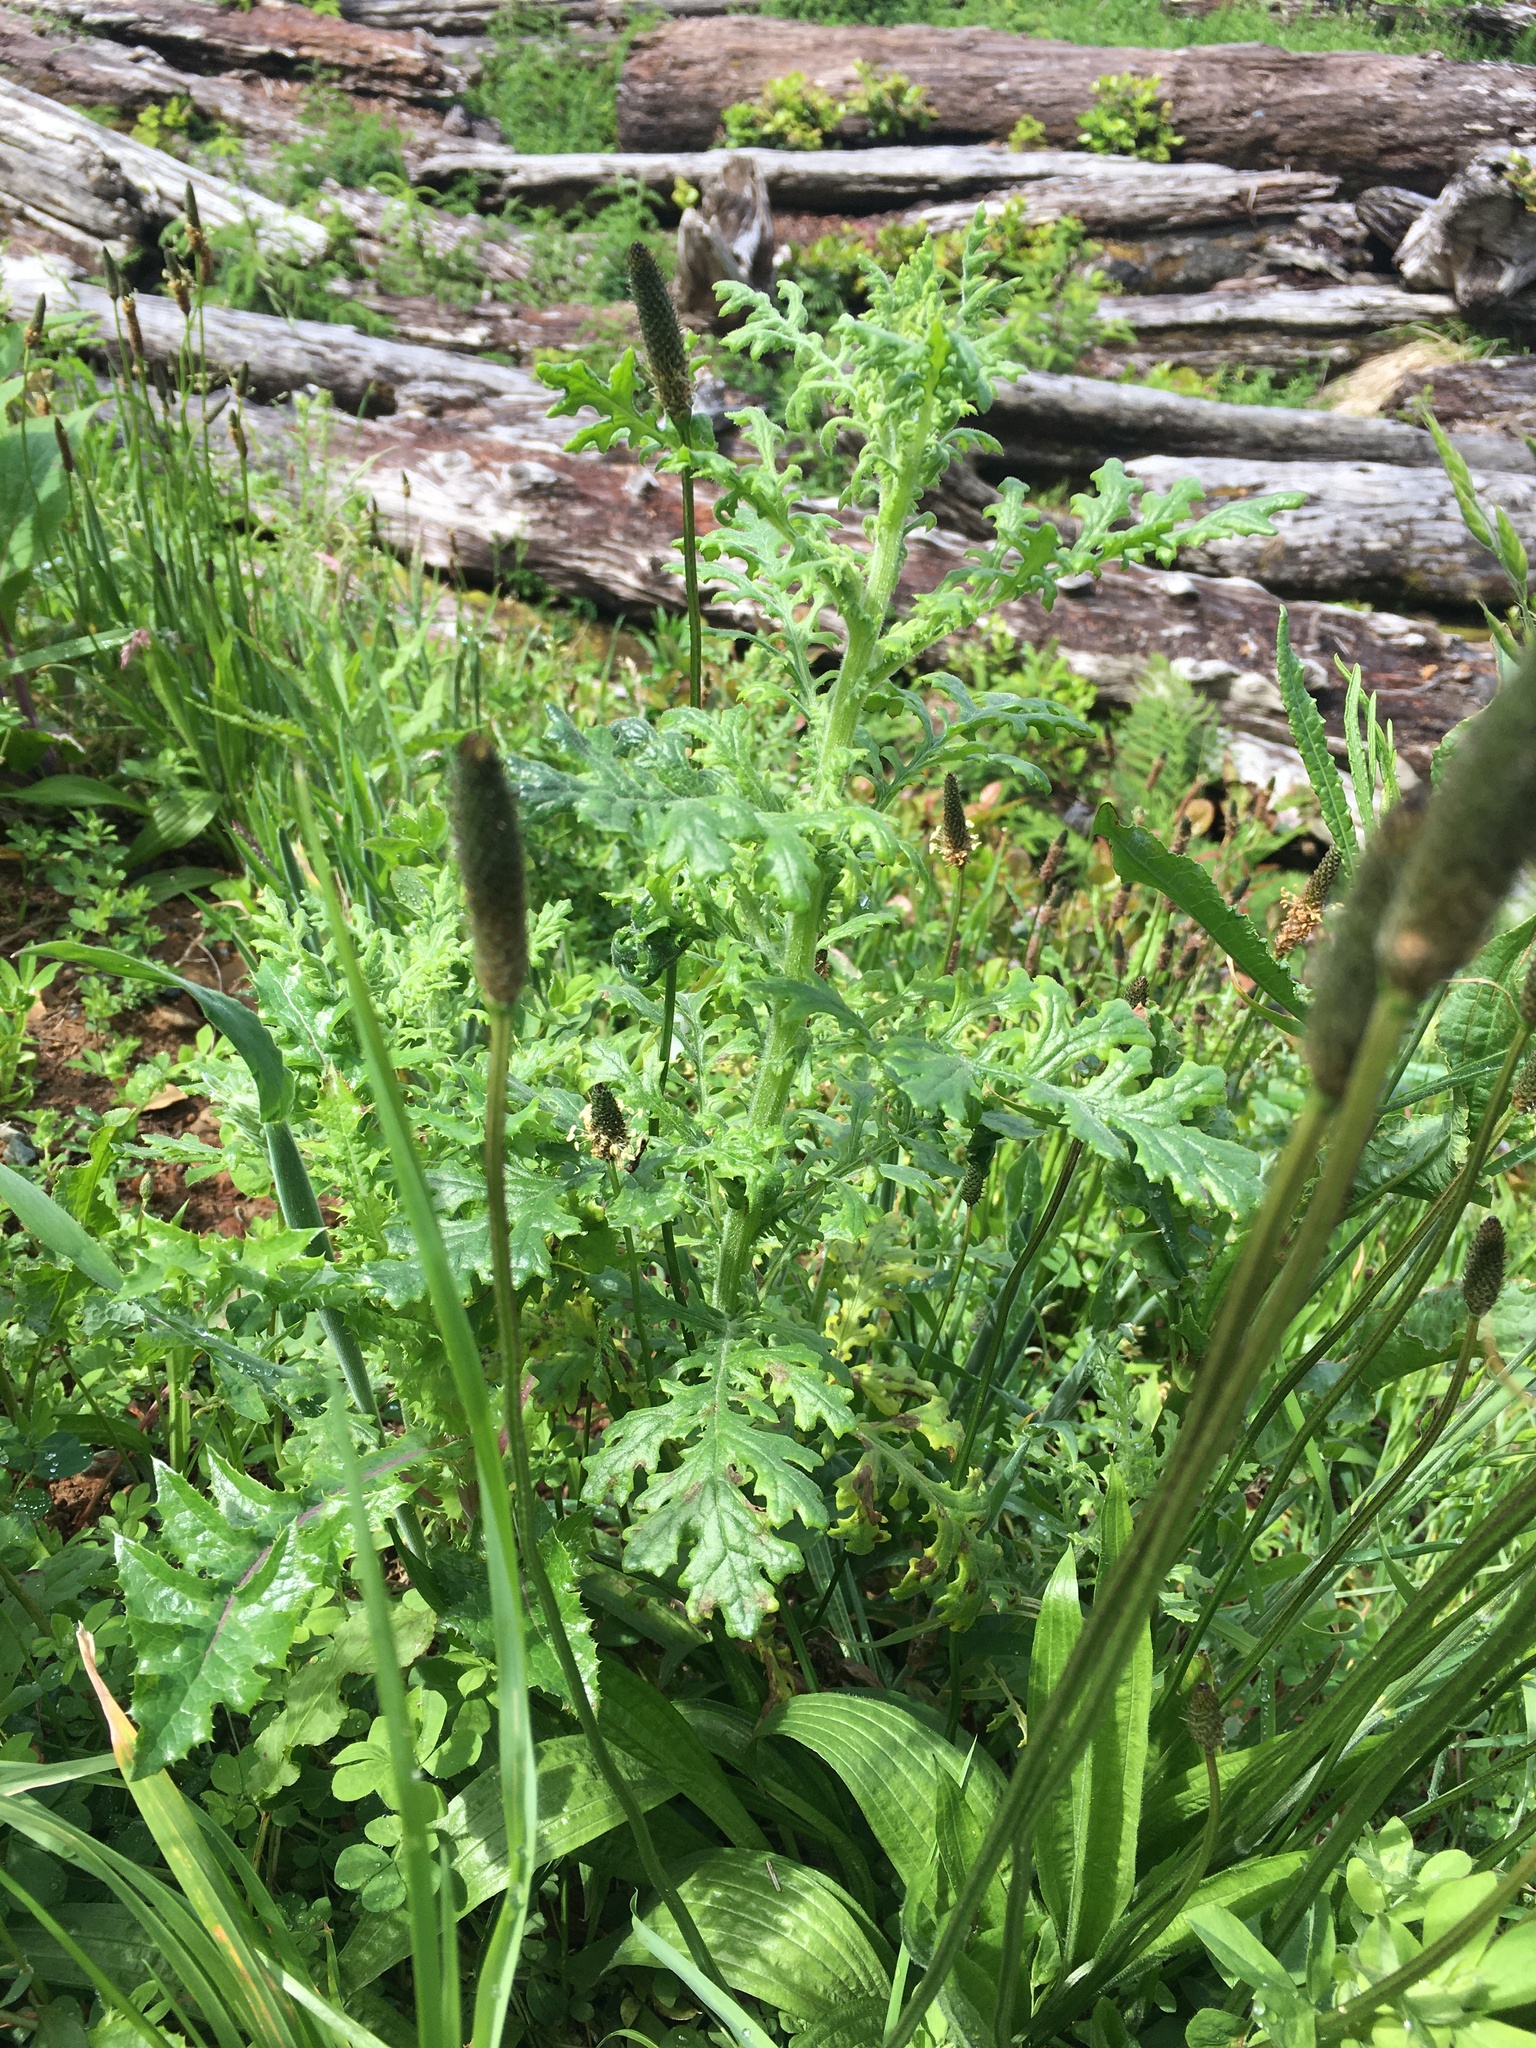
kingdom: Plantae
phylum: Tracheophyta
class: Magnoliopsida
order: Asterales
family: Asteraceae
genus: Jacobaea
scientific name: Jacobaea vulgaris
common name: Stinking willie
